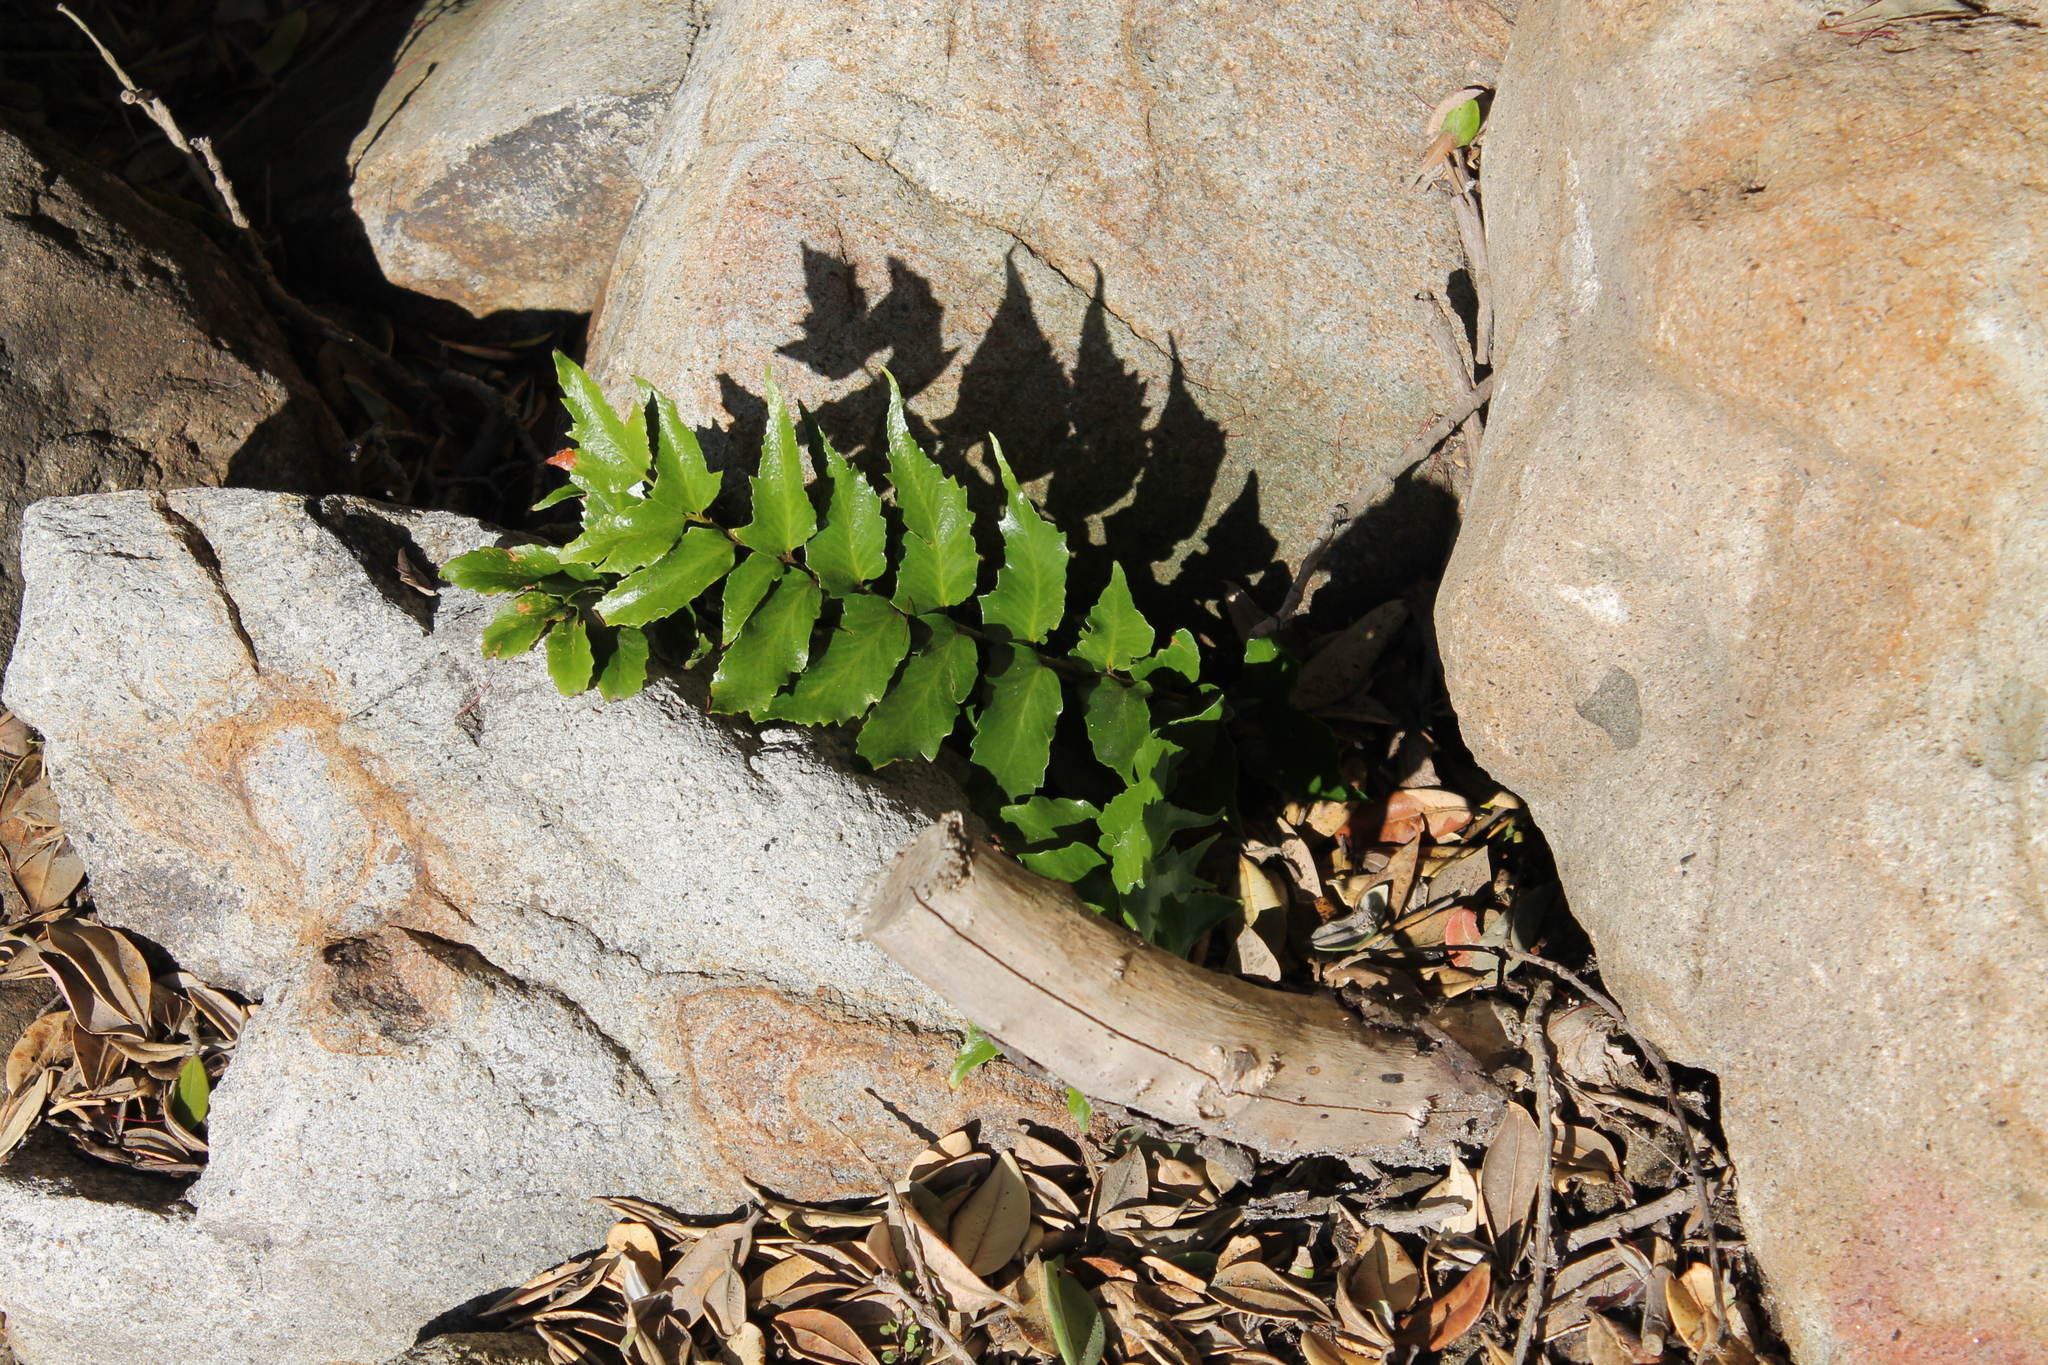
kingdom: Plantae
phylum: Tracheophyta
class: Polypodiopsida
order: Polypodiales
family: Dryopteridaceae
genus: Cyrtomium
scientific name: Cyrtomium falcatum
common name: House holly-fern
